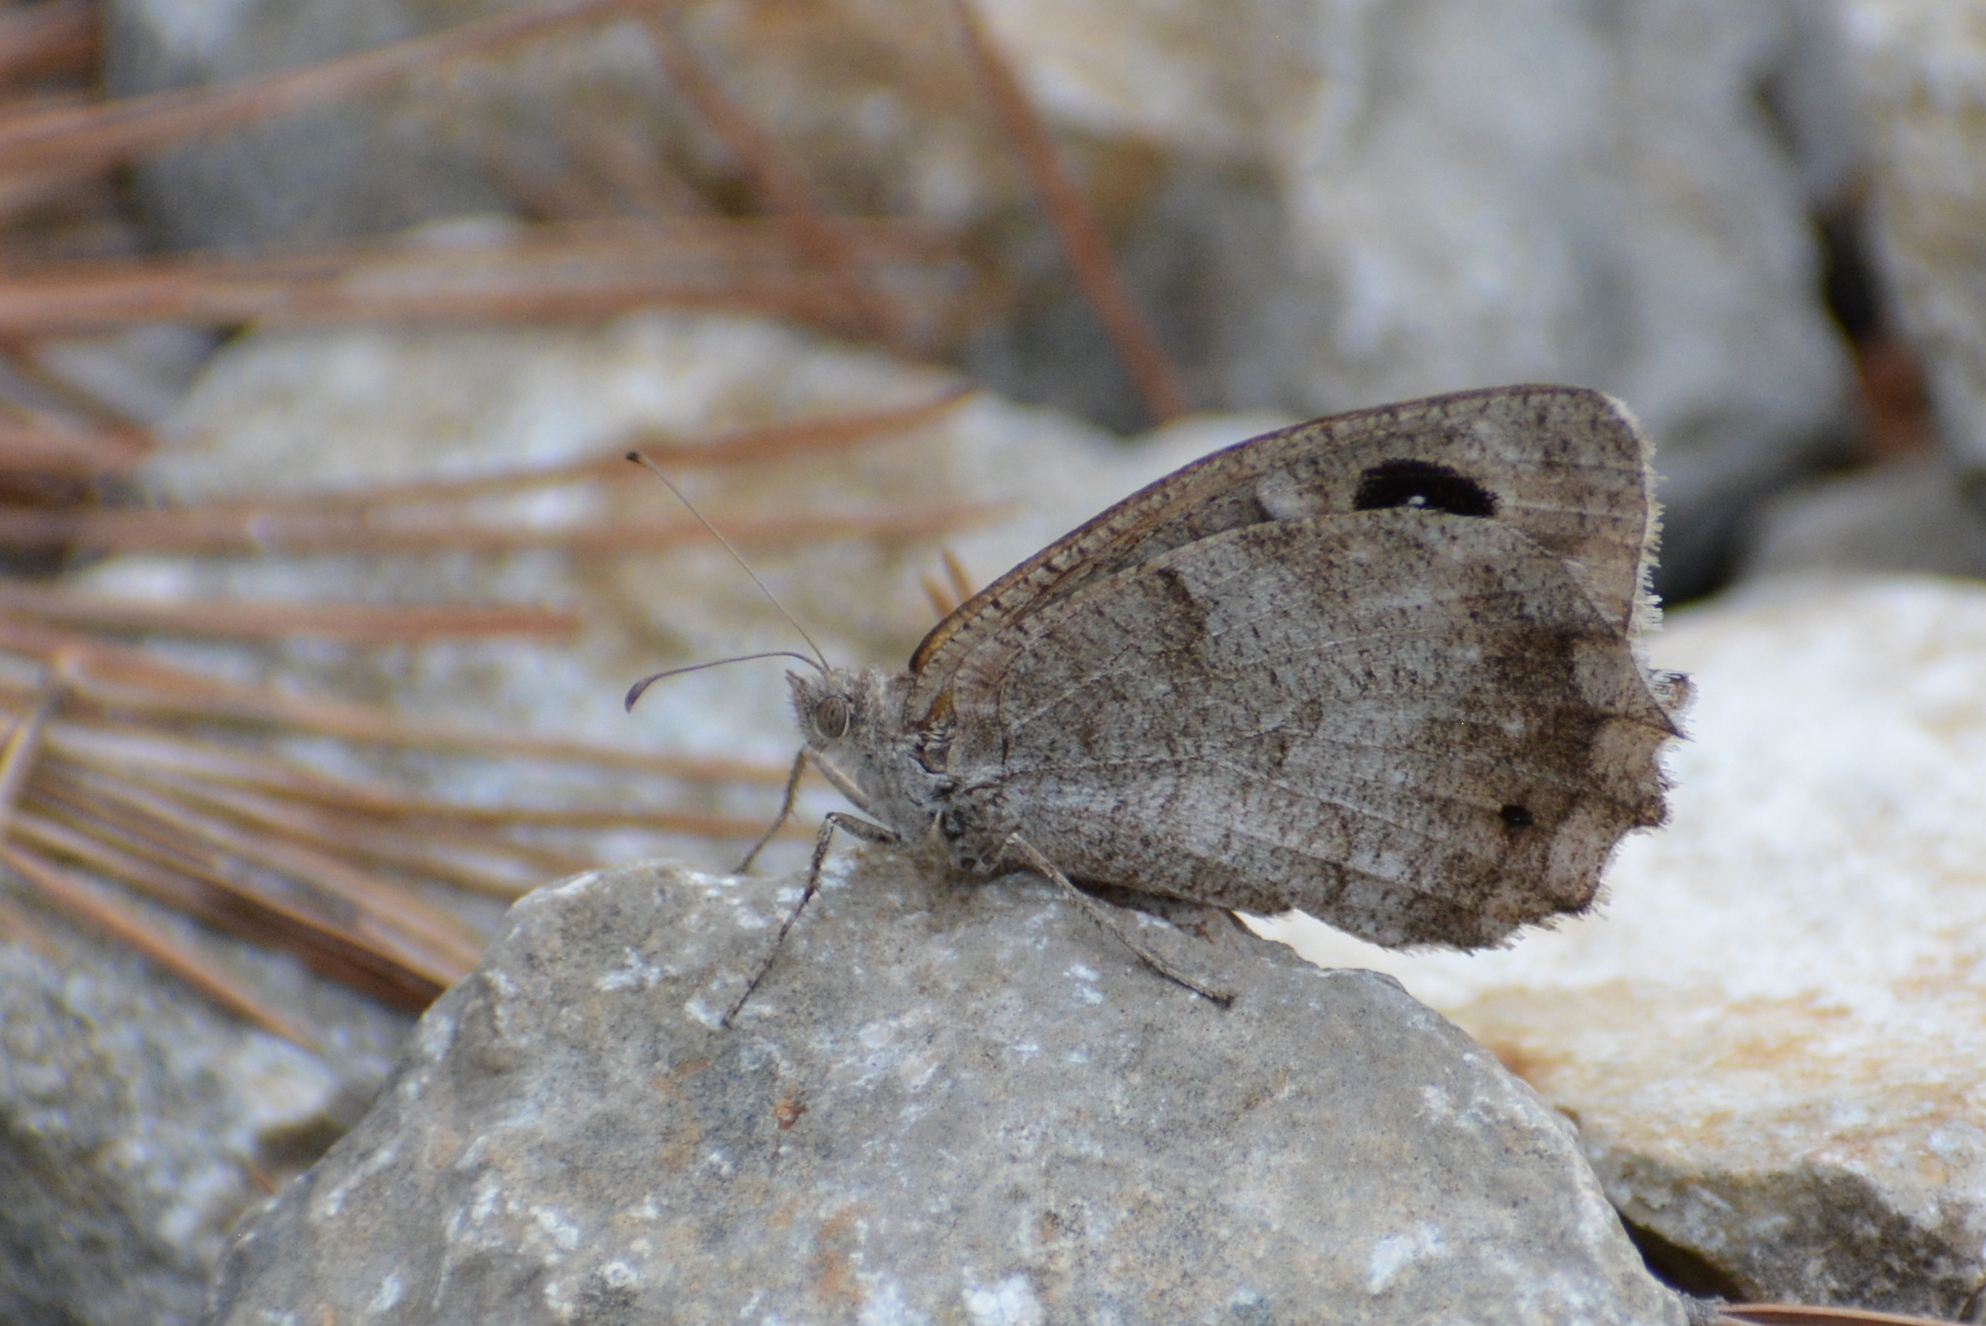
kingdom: Animalia
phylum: Arthropoda
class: Insecta
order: Lepidoptera
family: Nymphalidae
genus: Hipparchia
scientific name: Hipparchia statilinus
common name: Tree grayling
